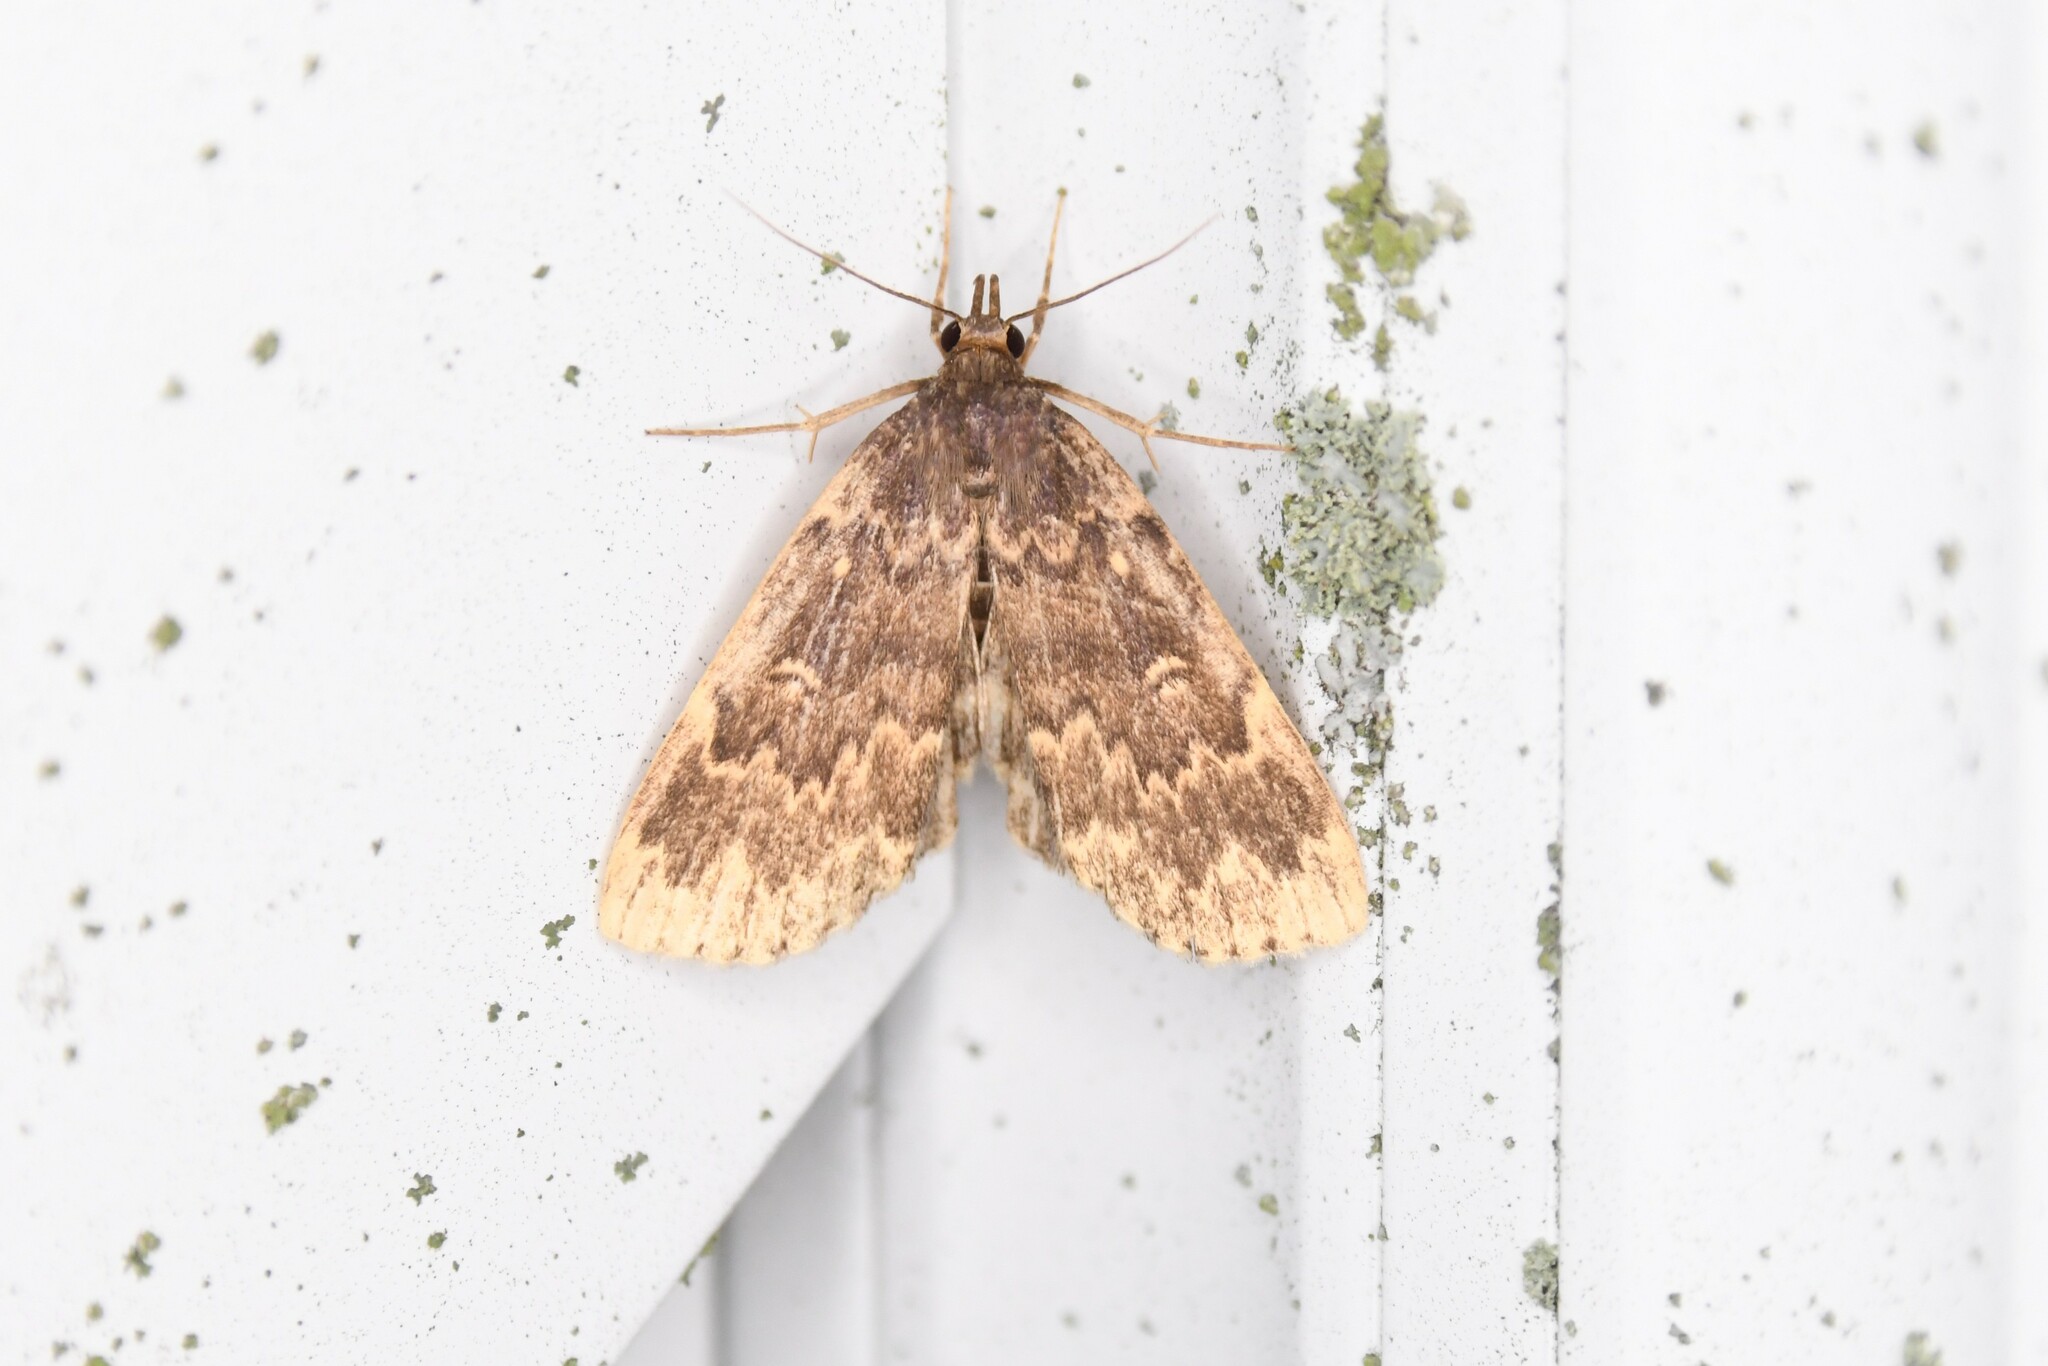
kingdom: Animalia
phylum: Arthropoda
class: Insecta
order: Lepidoptera
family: Erebidae
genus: Idia
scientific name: Idia lubricalis
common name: Twin-striped tabby
